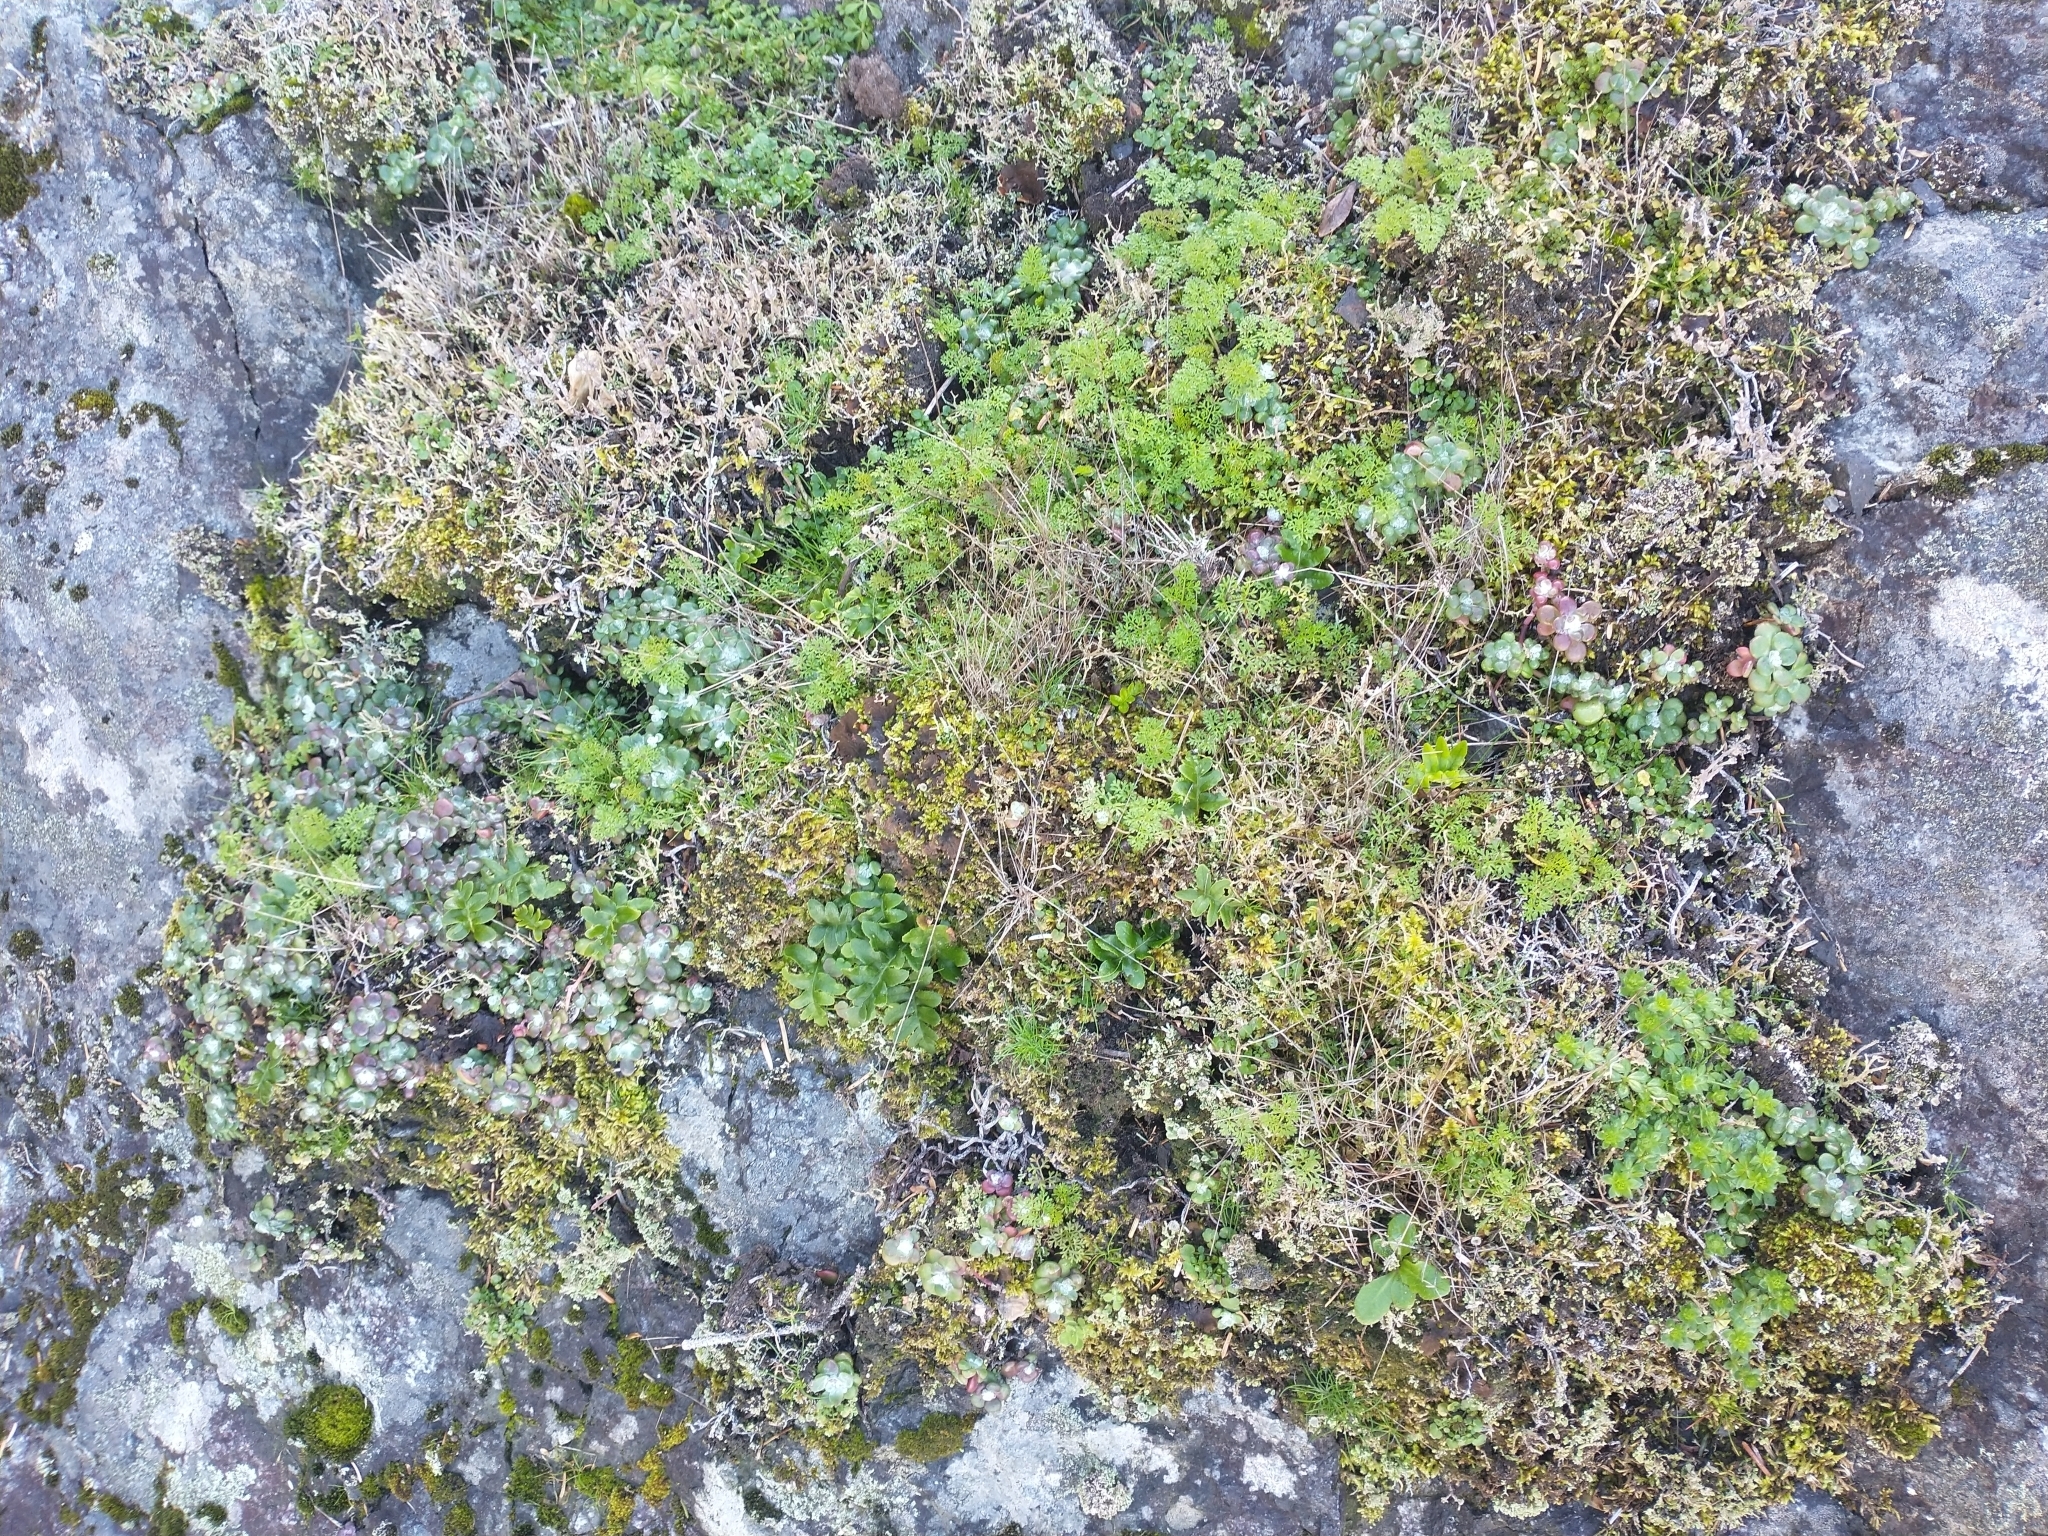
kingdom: Plantae
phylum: Tracheophyta
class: Magnoliopsida
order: Saxifragales
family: Crassulaceae
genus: Sedum
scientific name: Sedum spathulifolium
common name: Colorado stonecrop
